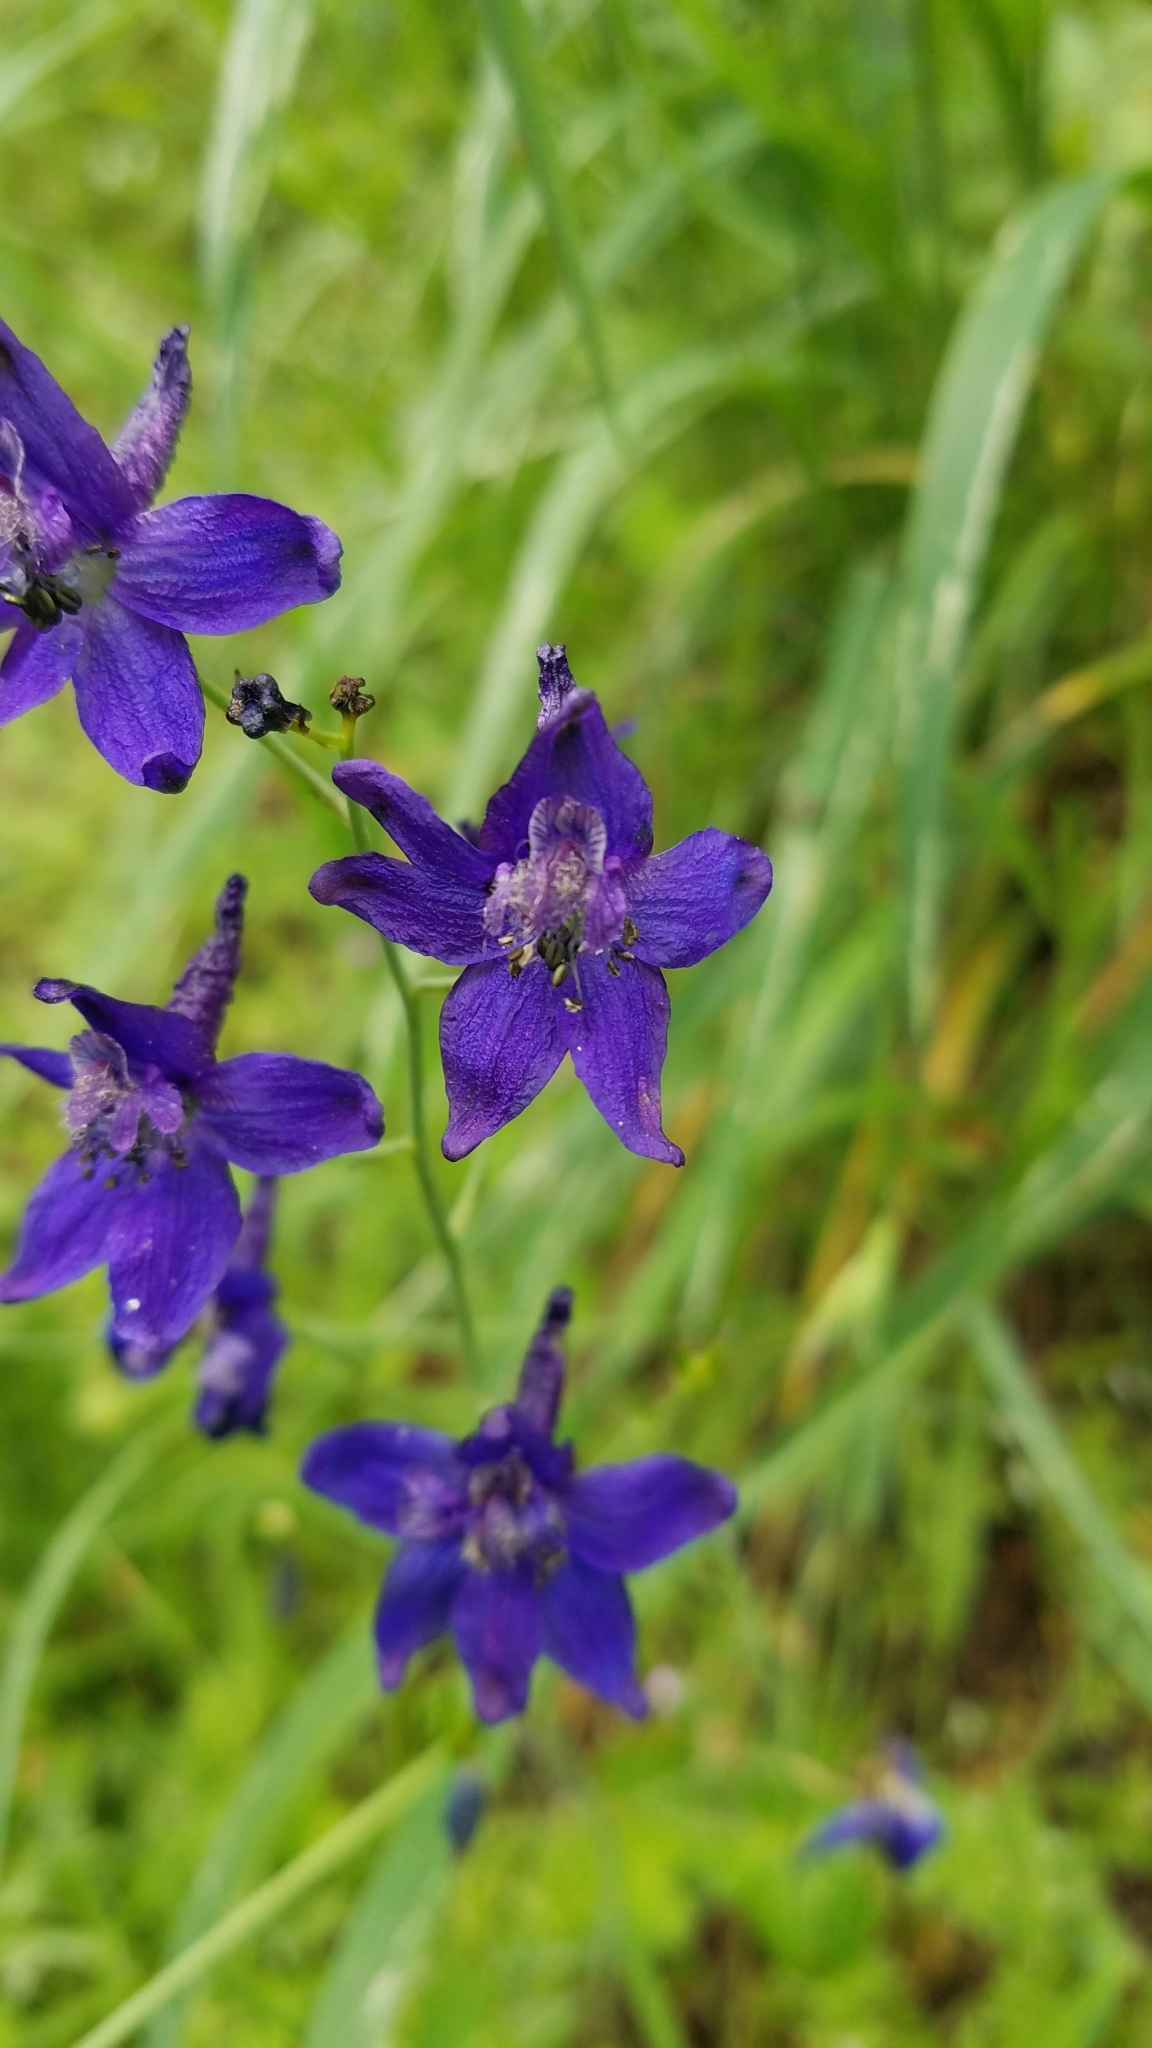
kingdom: Plantae
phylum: Tracheophyta
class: Magnoliopsida
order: Ranunculales
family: Ranunculaceae
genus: Delphinium
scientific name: Delphinium patens
